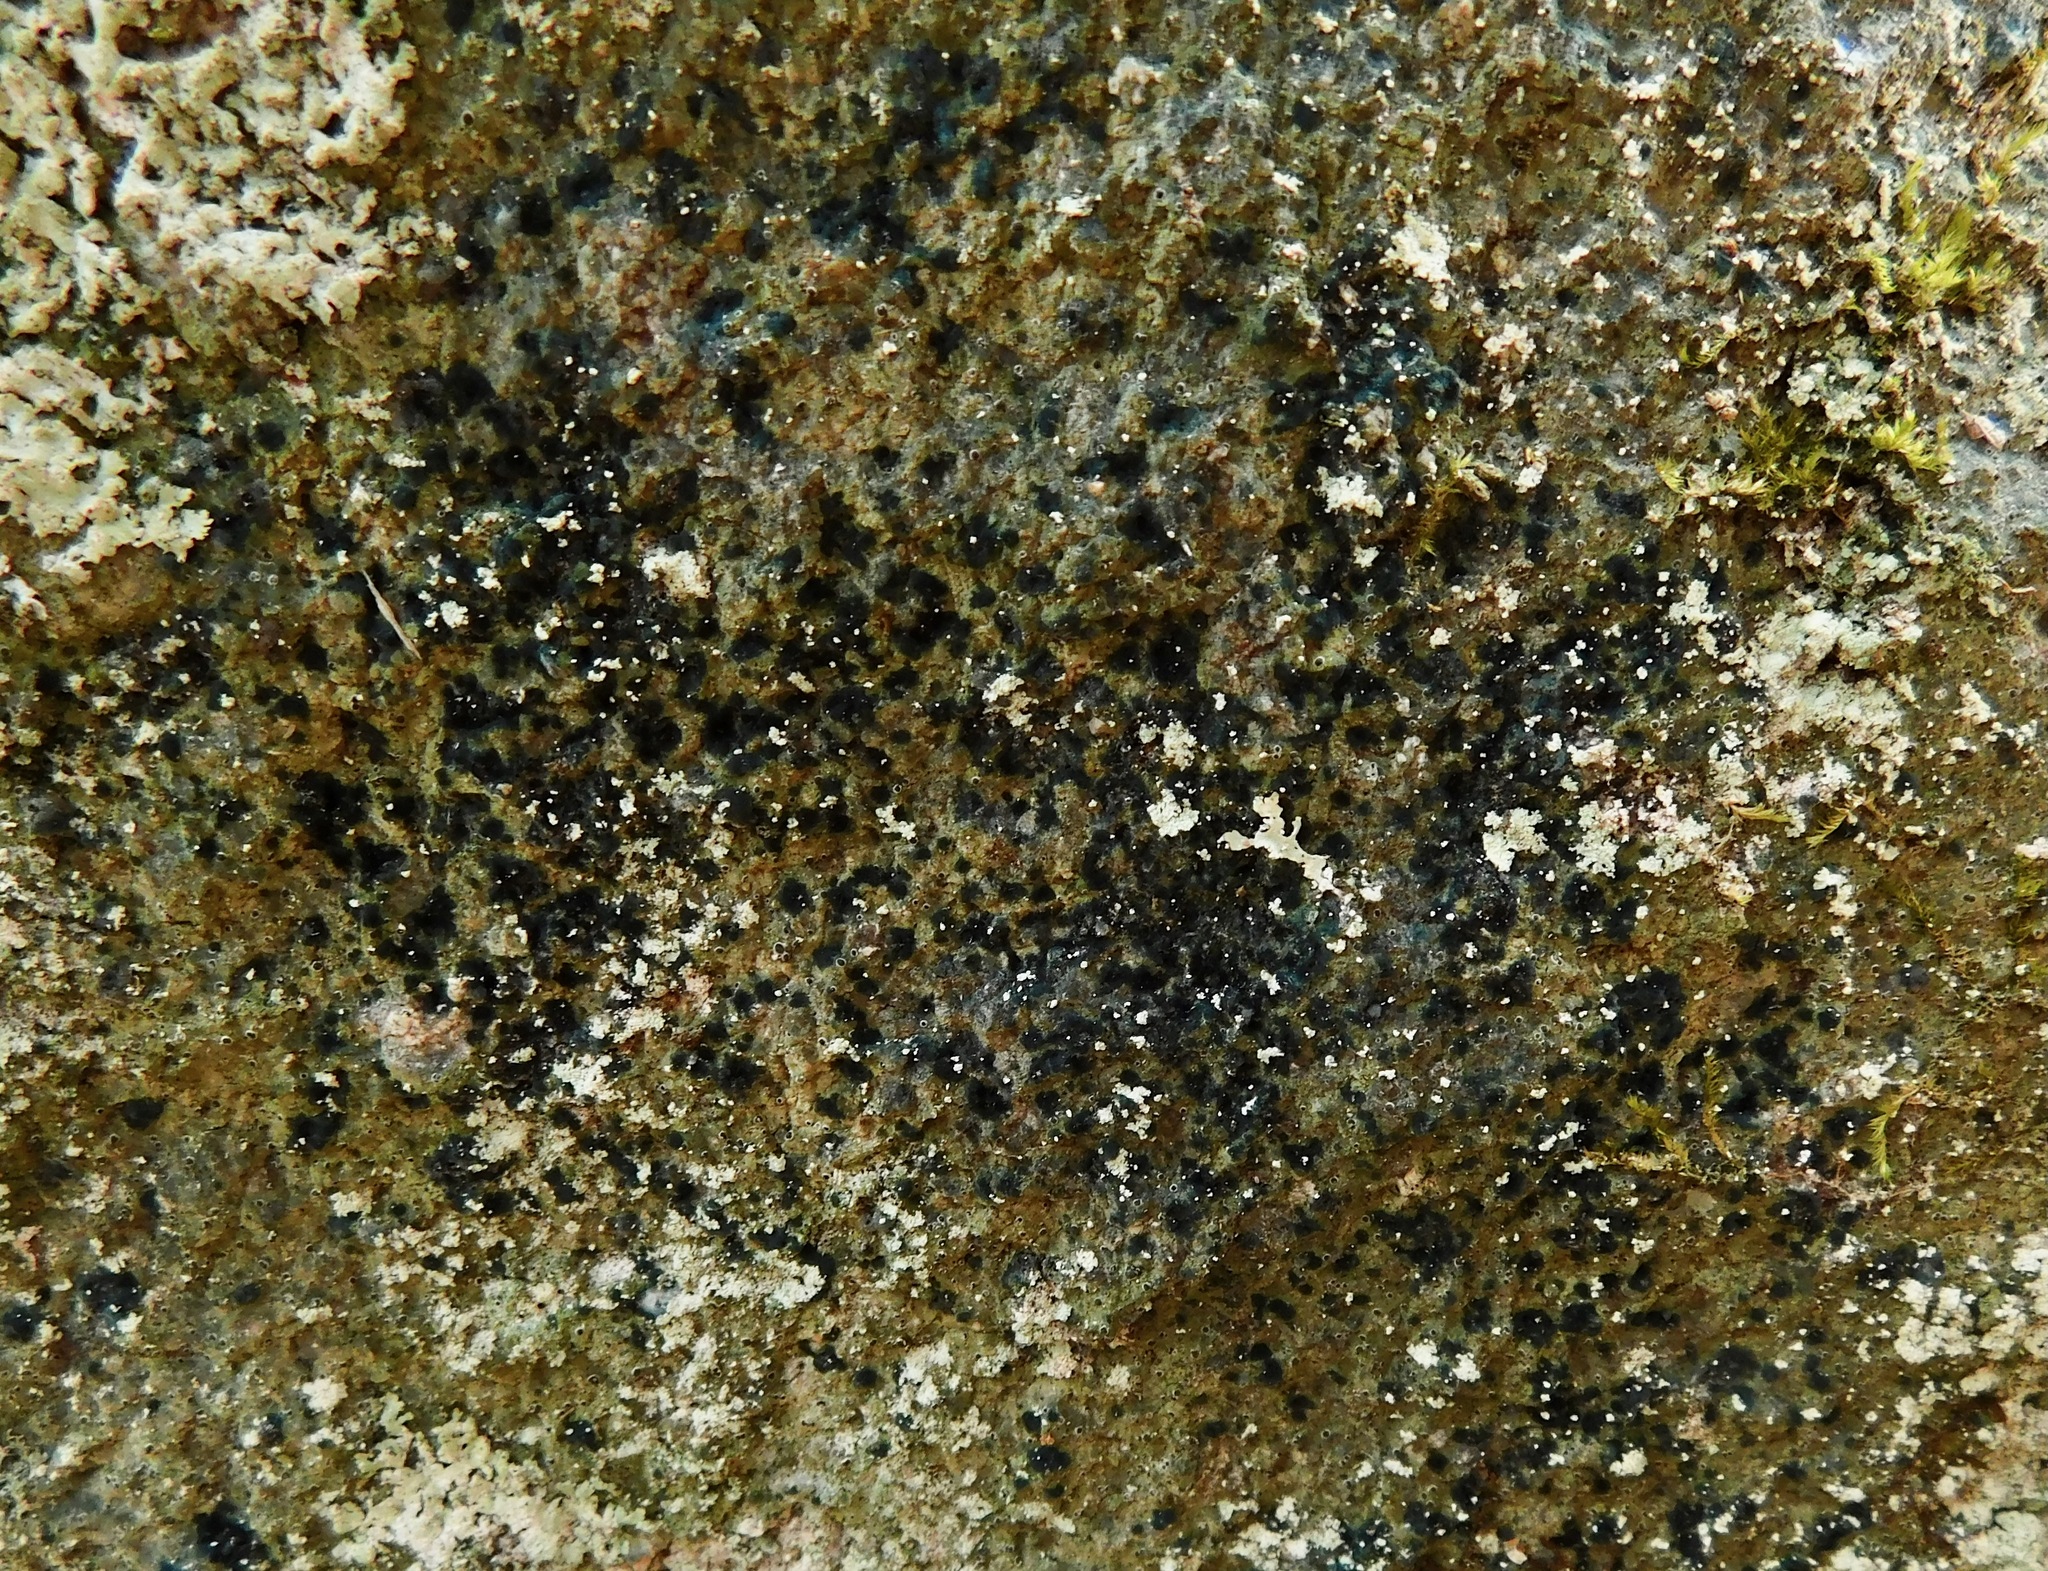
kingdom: Fungi
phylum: Ascomycota
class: Lecanoromycetes
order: Lecanorales
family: Byssolomataceae
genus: Byssoloma
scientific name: Byssoloma leucoblepharum
